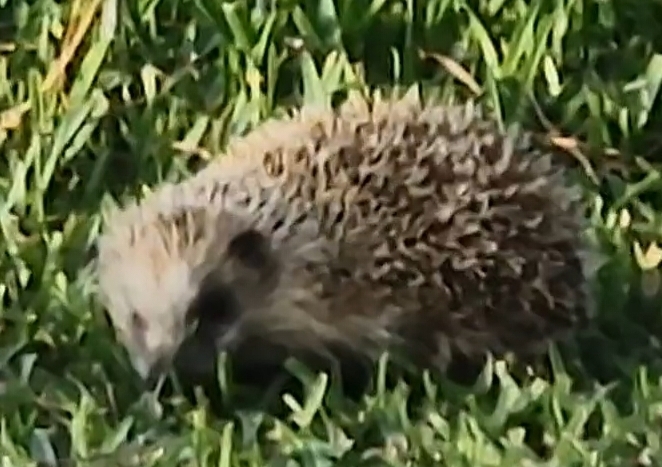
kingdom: Animalia
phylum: Chordata
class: Mammalia
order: Erinaceomorpha
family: Erinaceidae
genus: Erinaceus
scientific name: Erinaceus europaeus
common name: West european hedgehog
